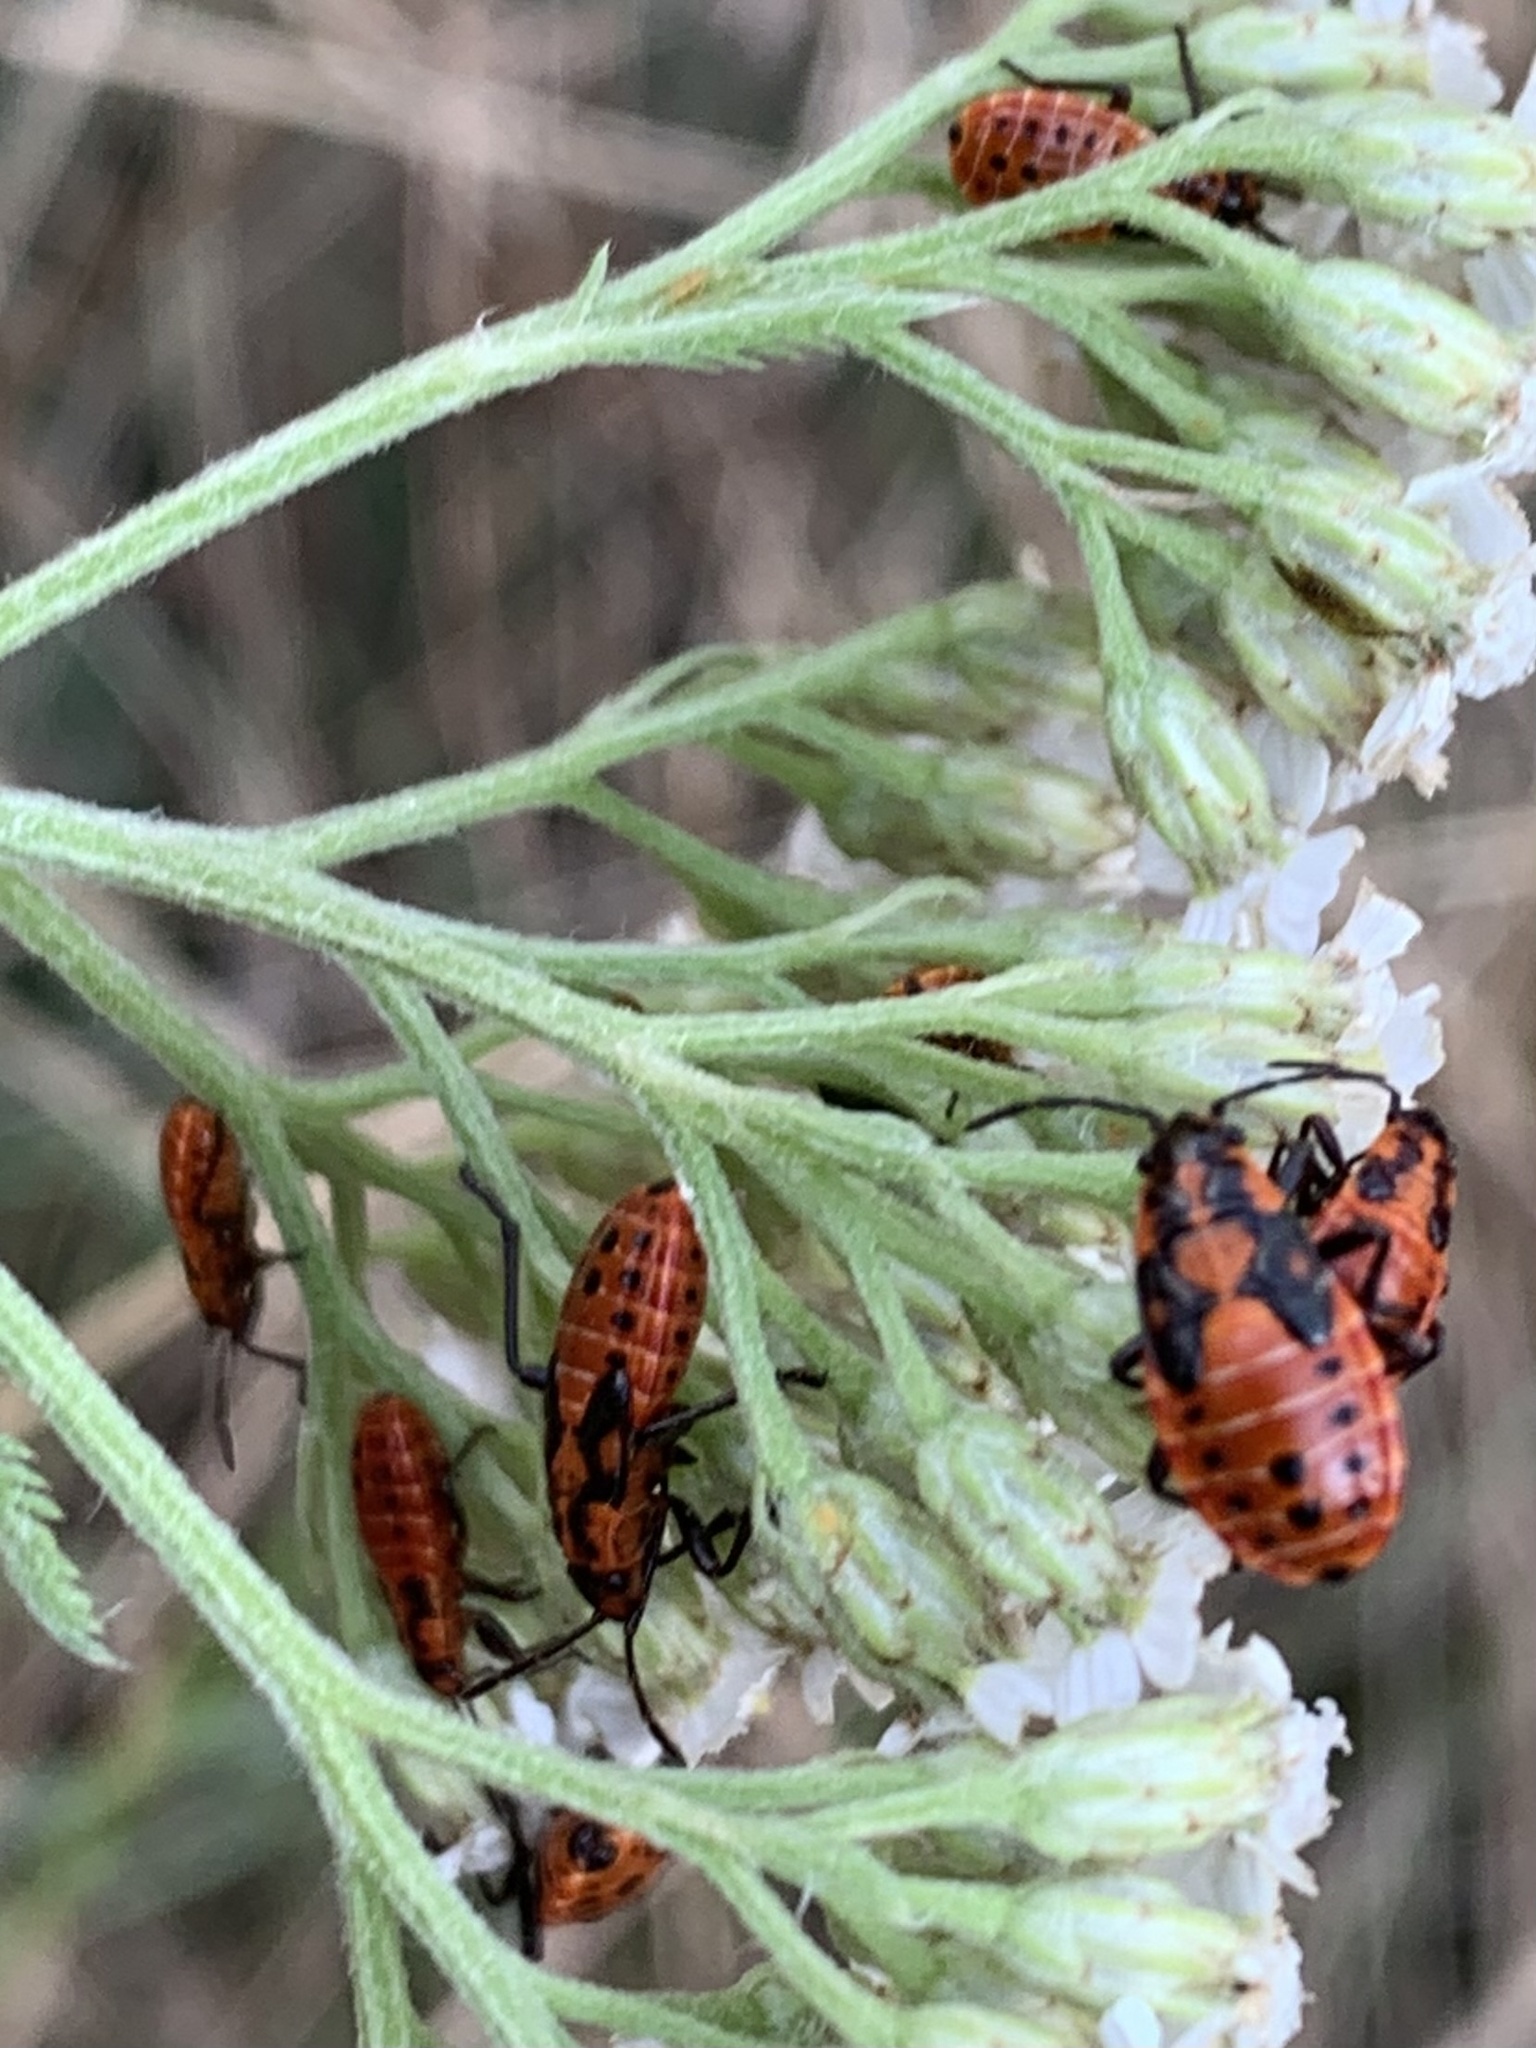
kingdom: Animalia
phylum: Arthropoda
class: Insecta
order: Hemiptera
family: Lygaeidae
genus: Spilostethus
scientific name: Spilostethus saxatilis
